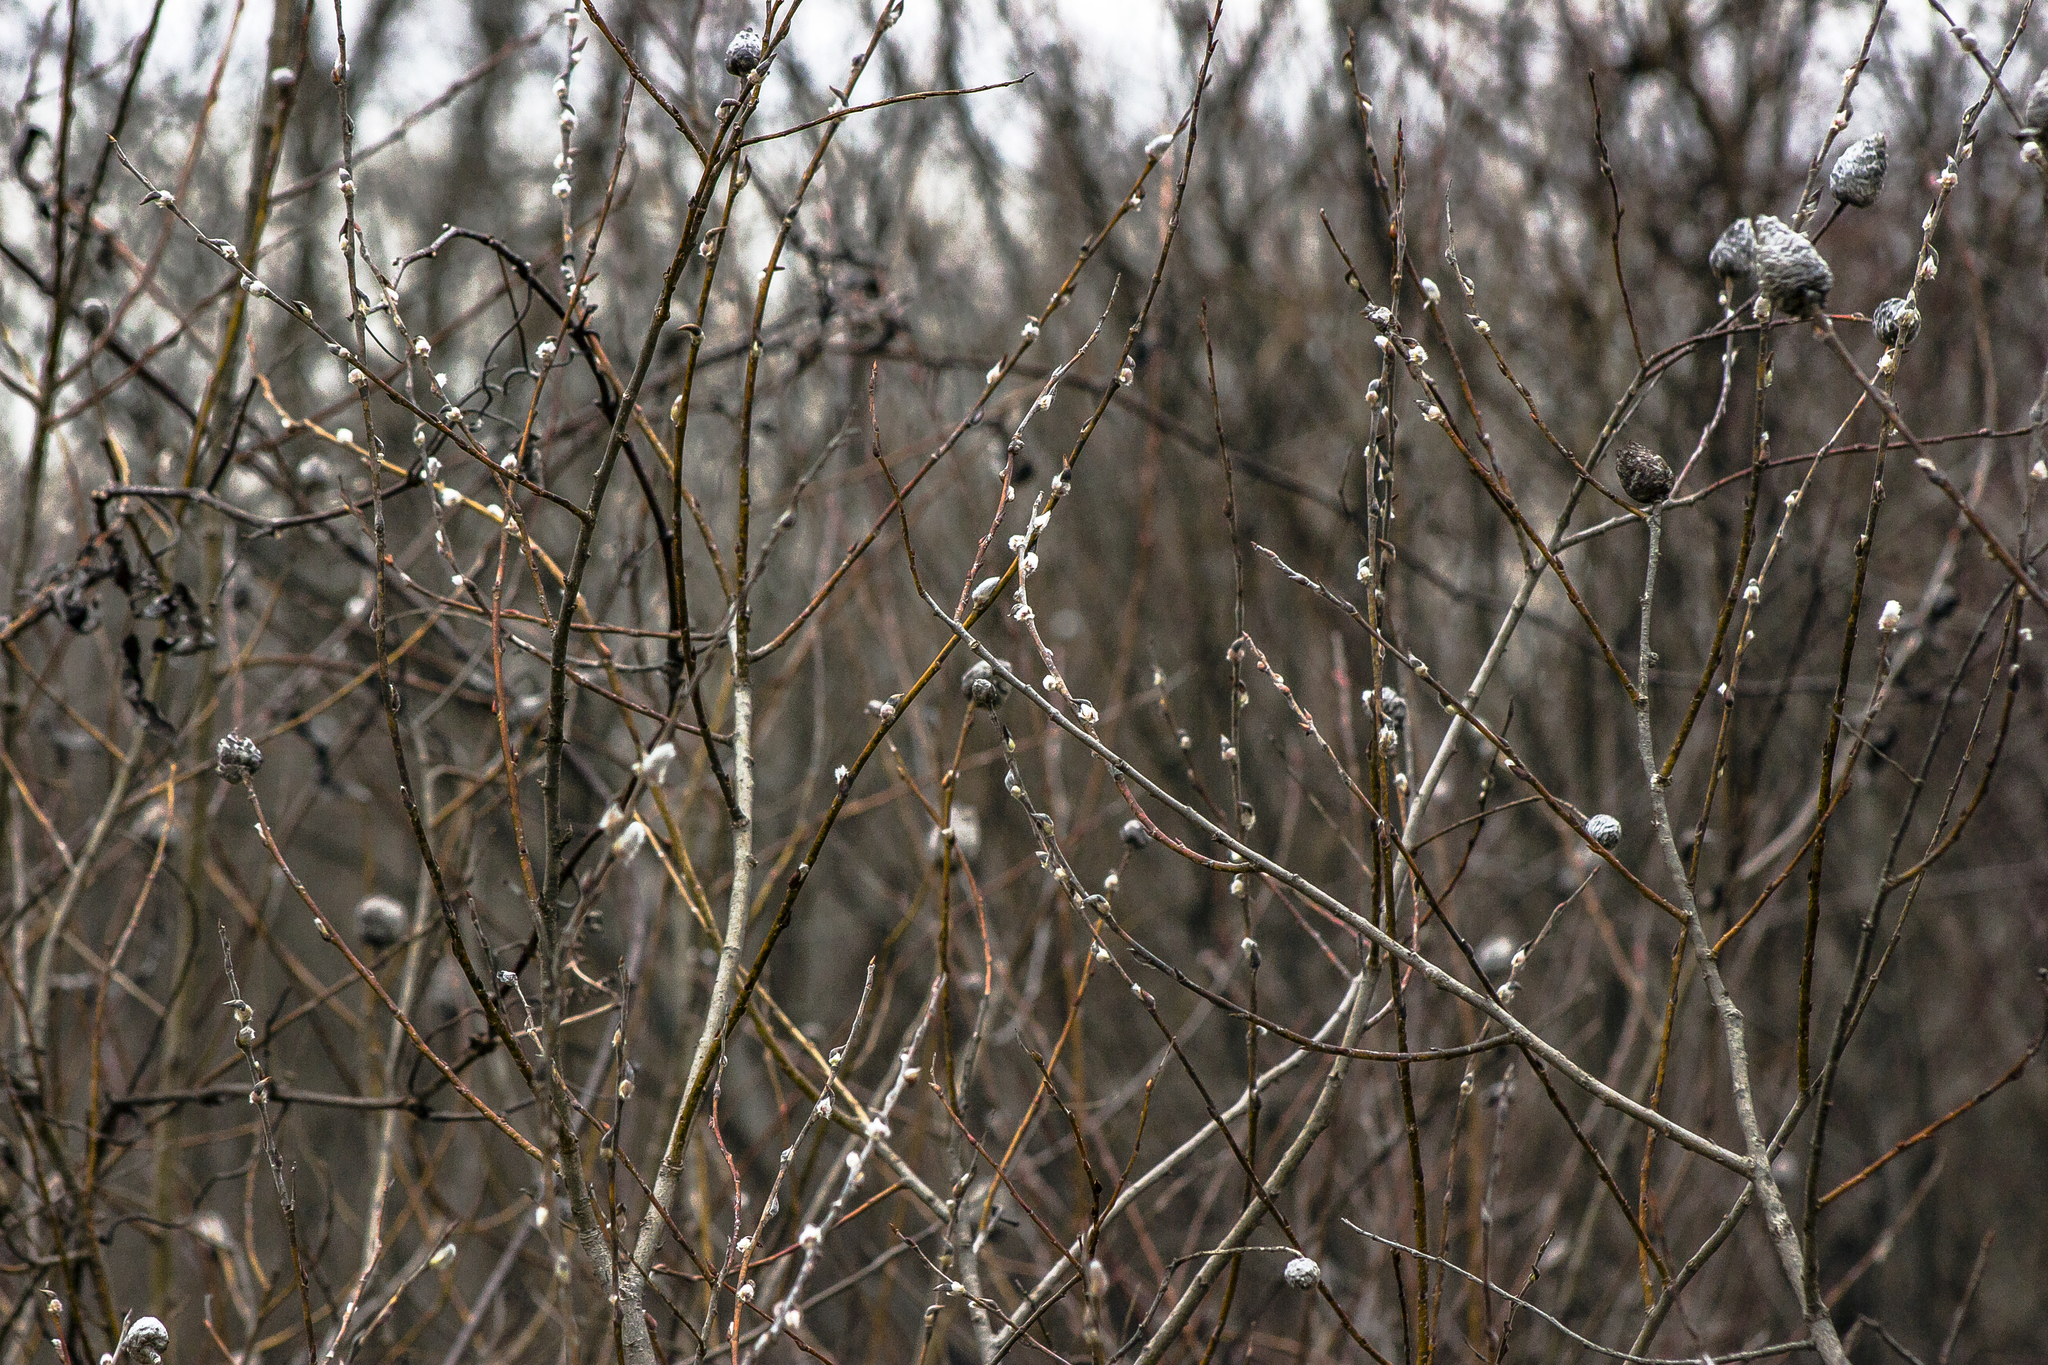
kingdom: Plantae
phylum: Tracheophyta
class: Magnoliopsida
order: Malpighiales
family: Salicaceae
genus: Salix
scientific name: Salix discolor
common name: Glaucous willow
